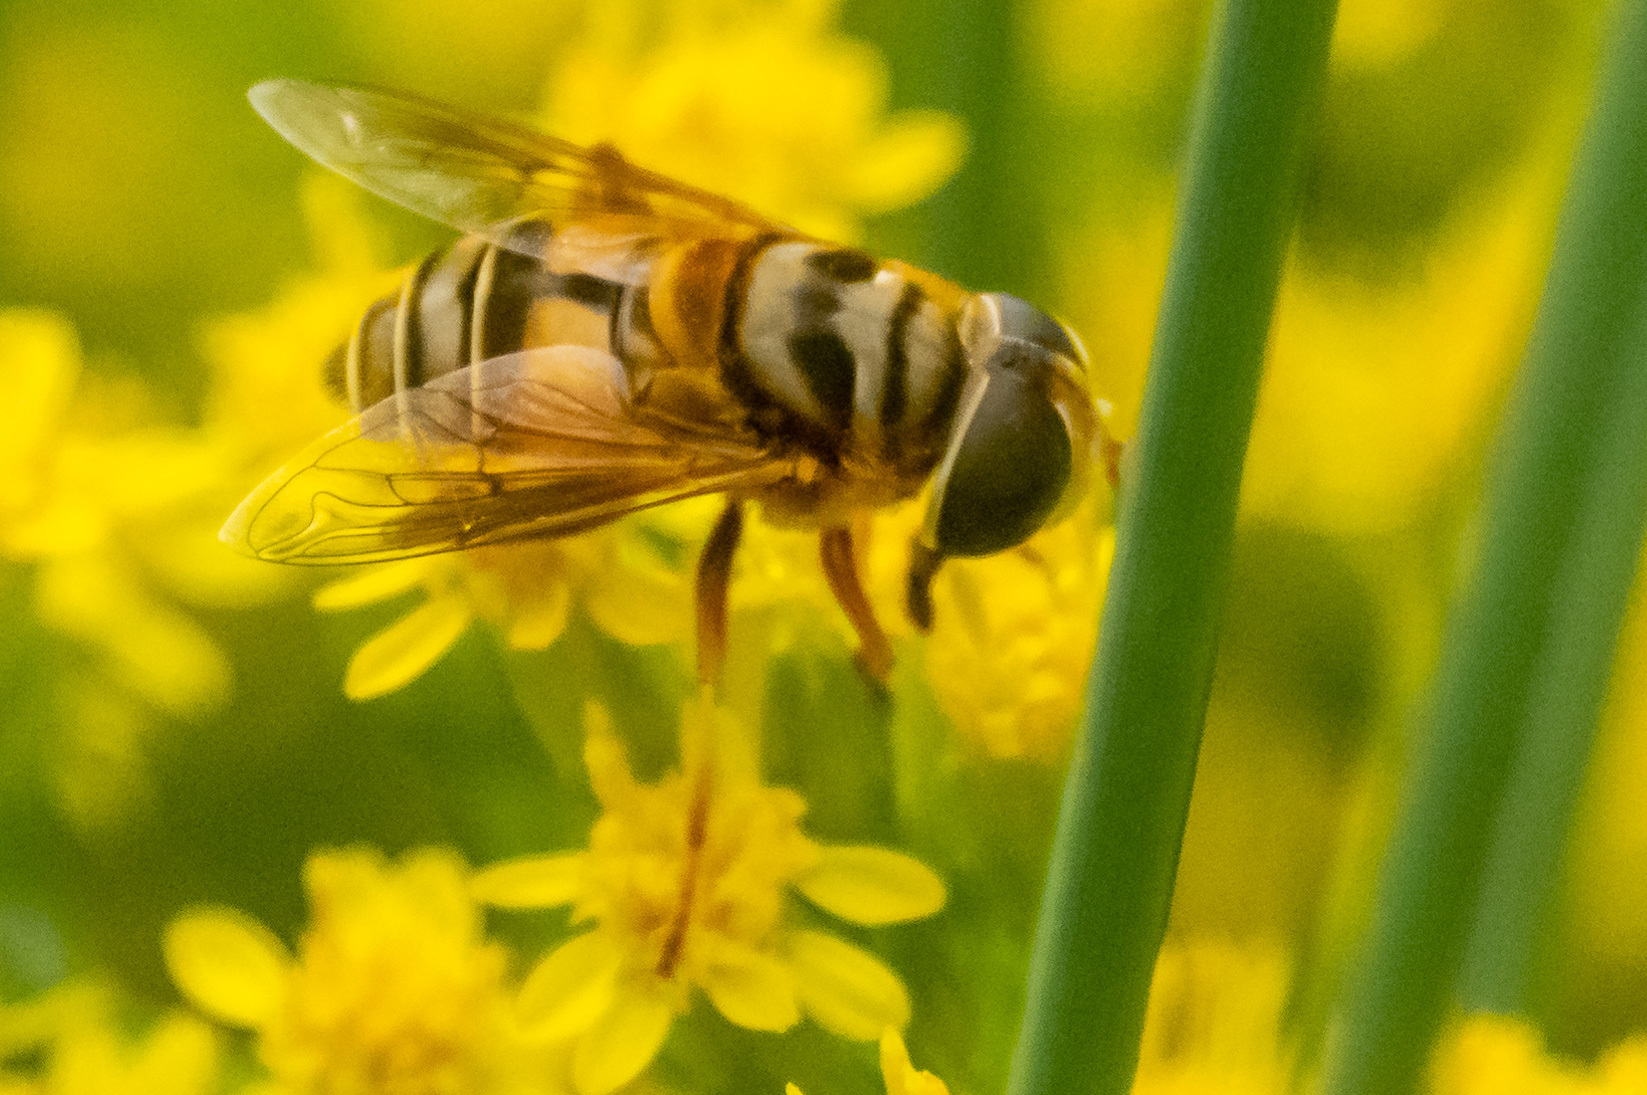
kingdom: Animalia
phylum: Arthropoda
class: Insecta
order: Diptera
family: Syrphidae
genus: Palpada
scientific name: Palpada vinetorum
